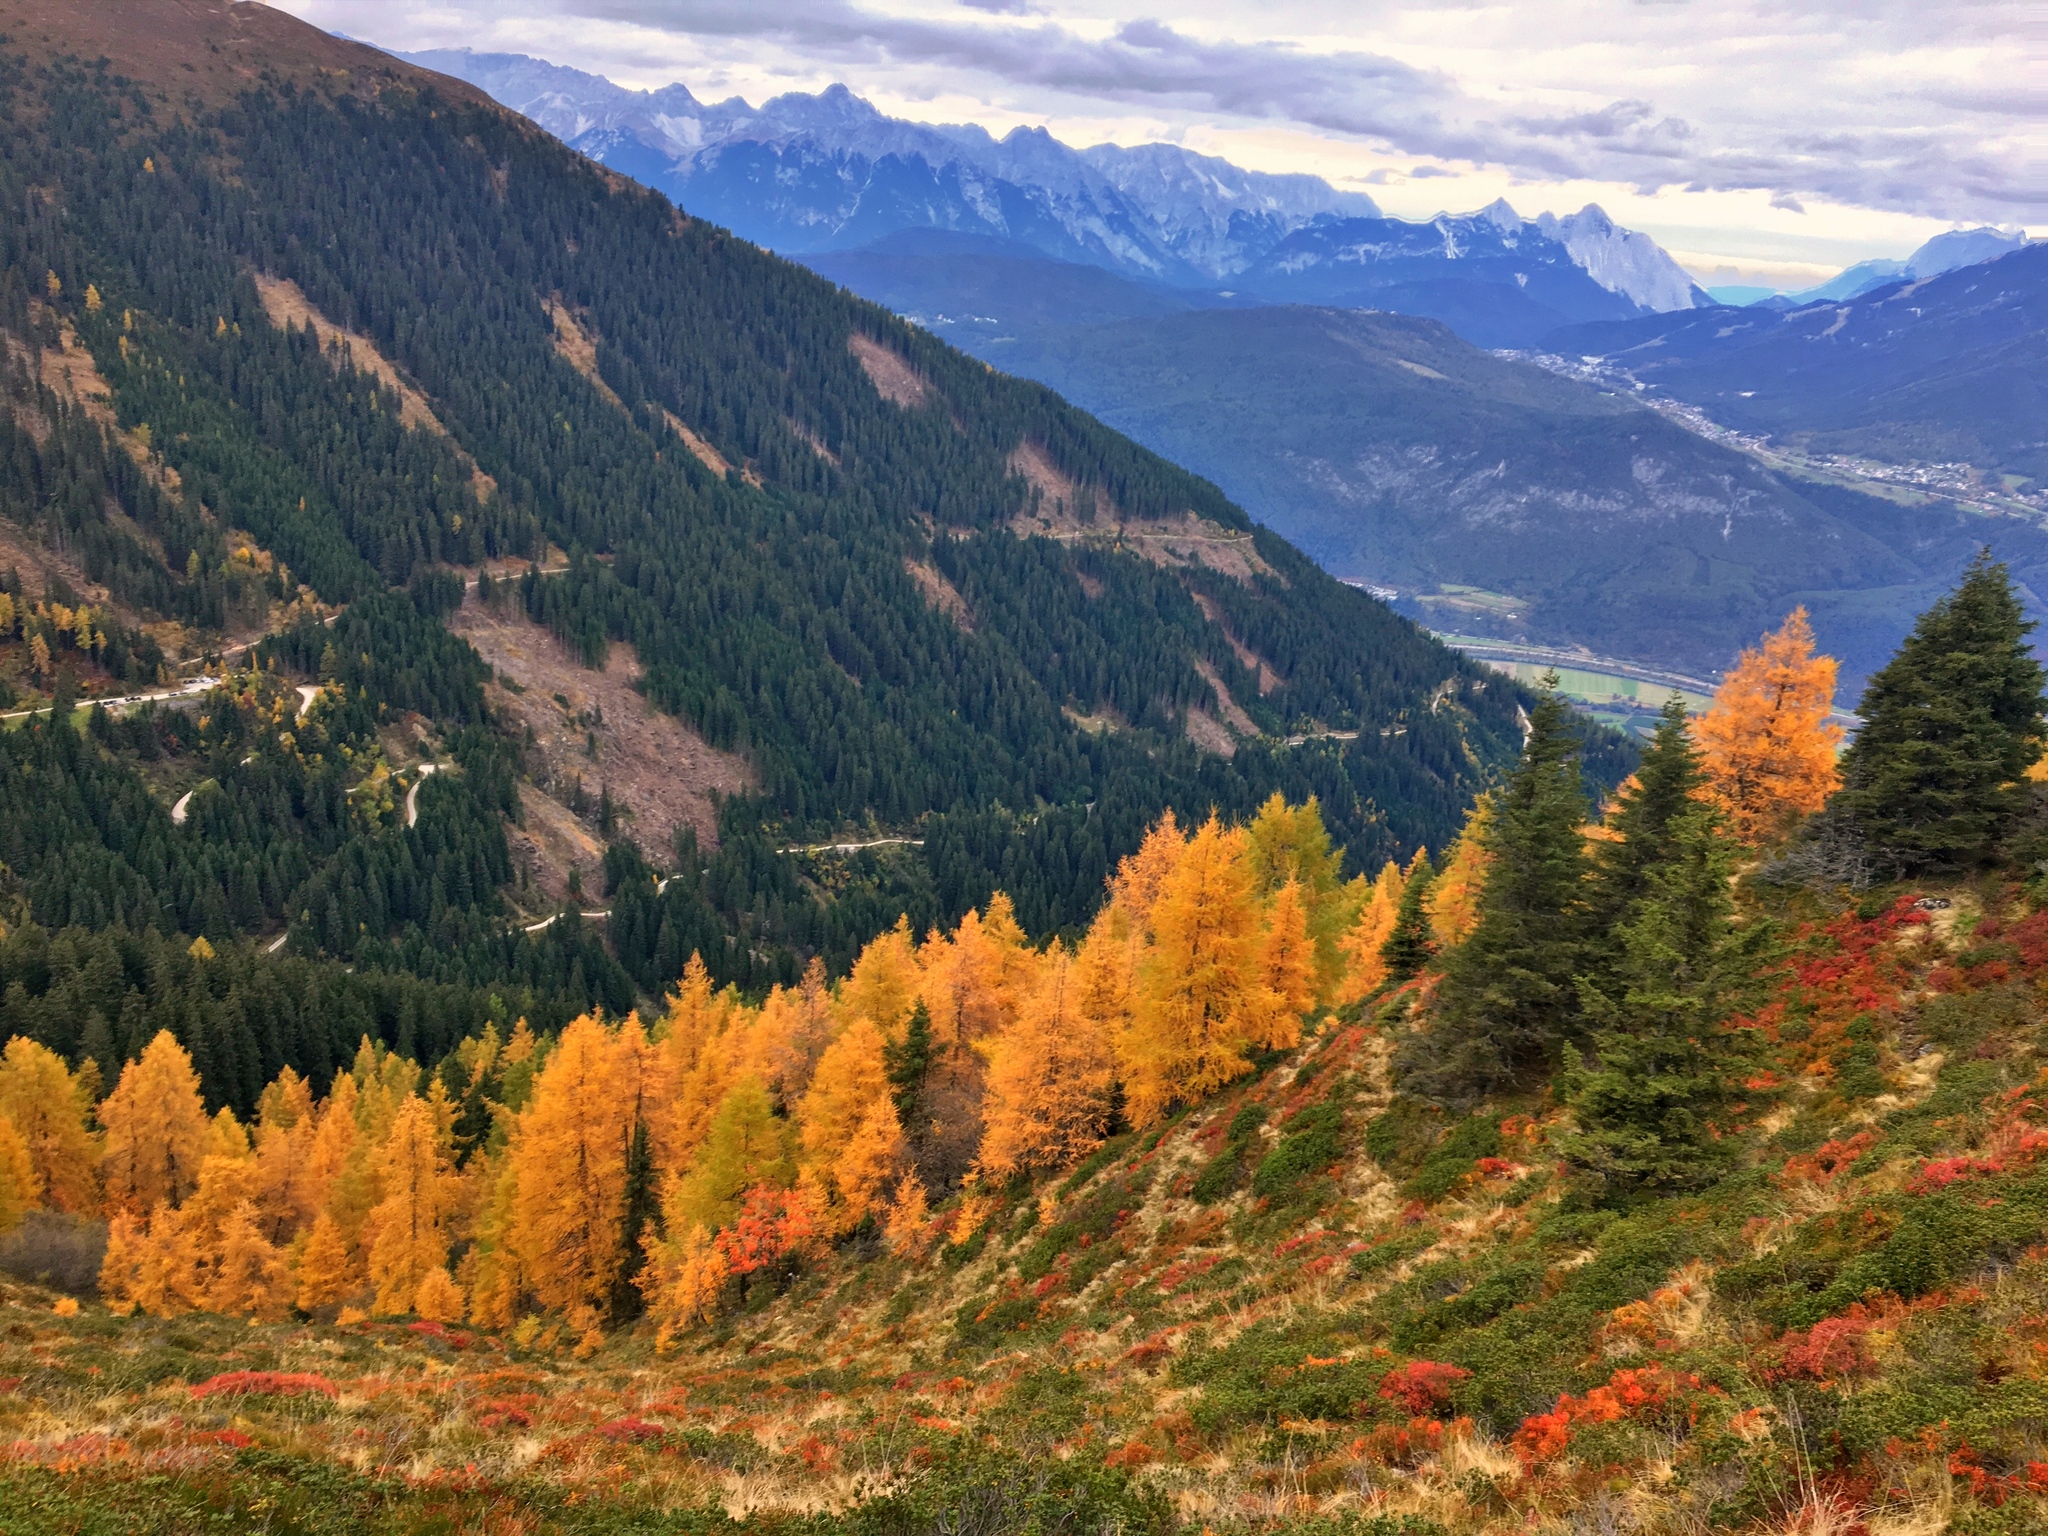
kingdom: Plantae
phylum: Tracheophyta
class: Pinopsida
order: Pinales
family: Pinaceae
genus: Larix
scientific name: Larix decidua
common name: European larch
